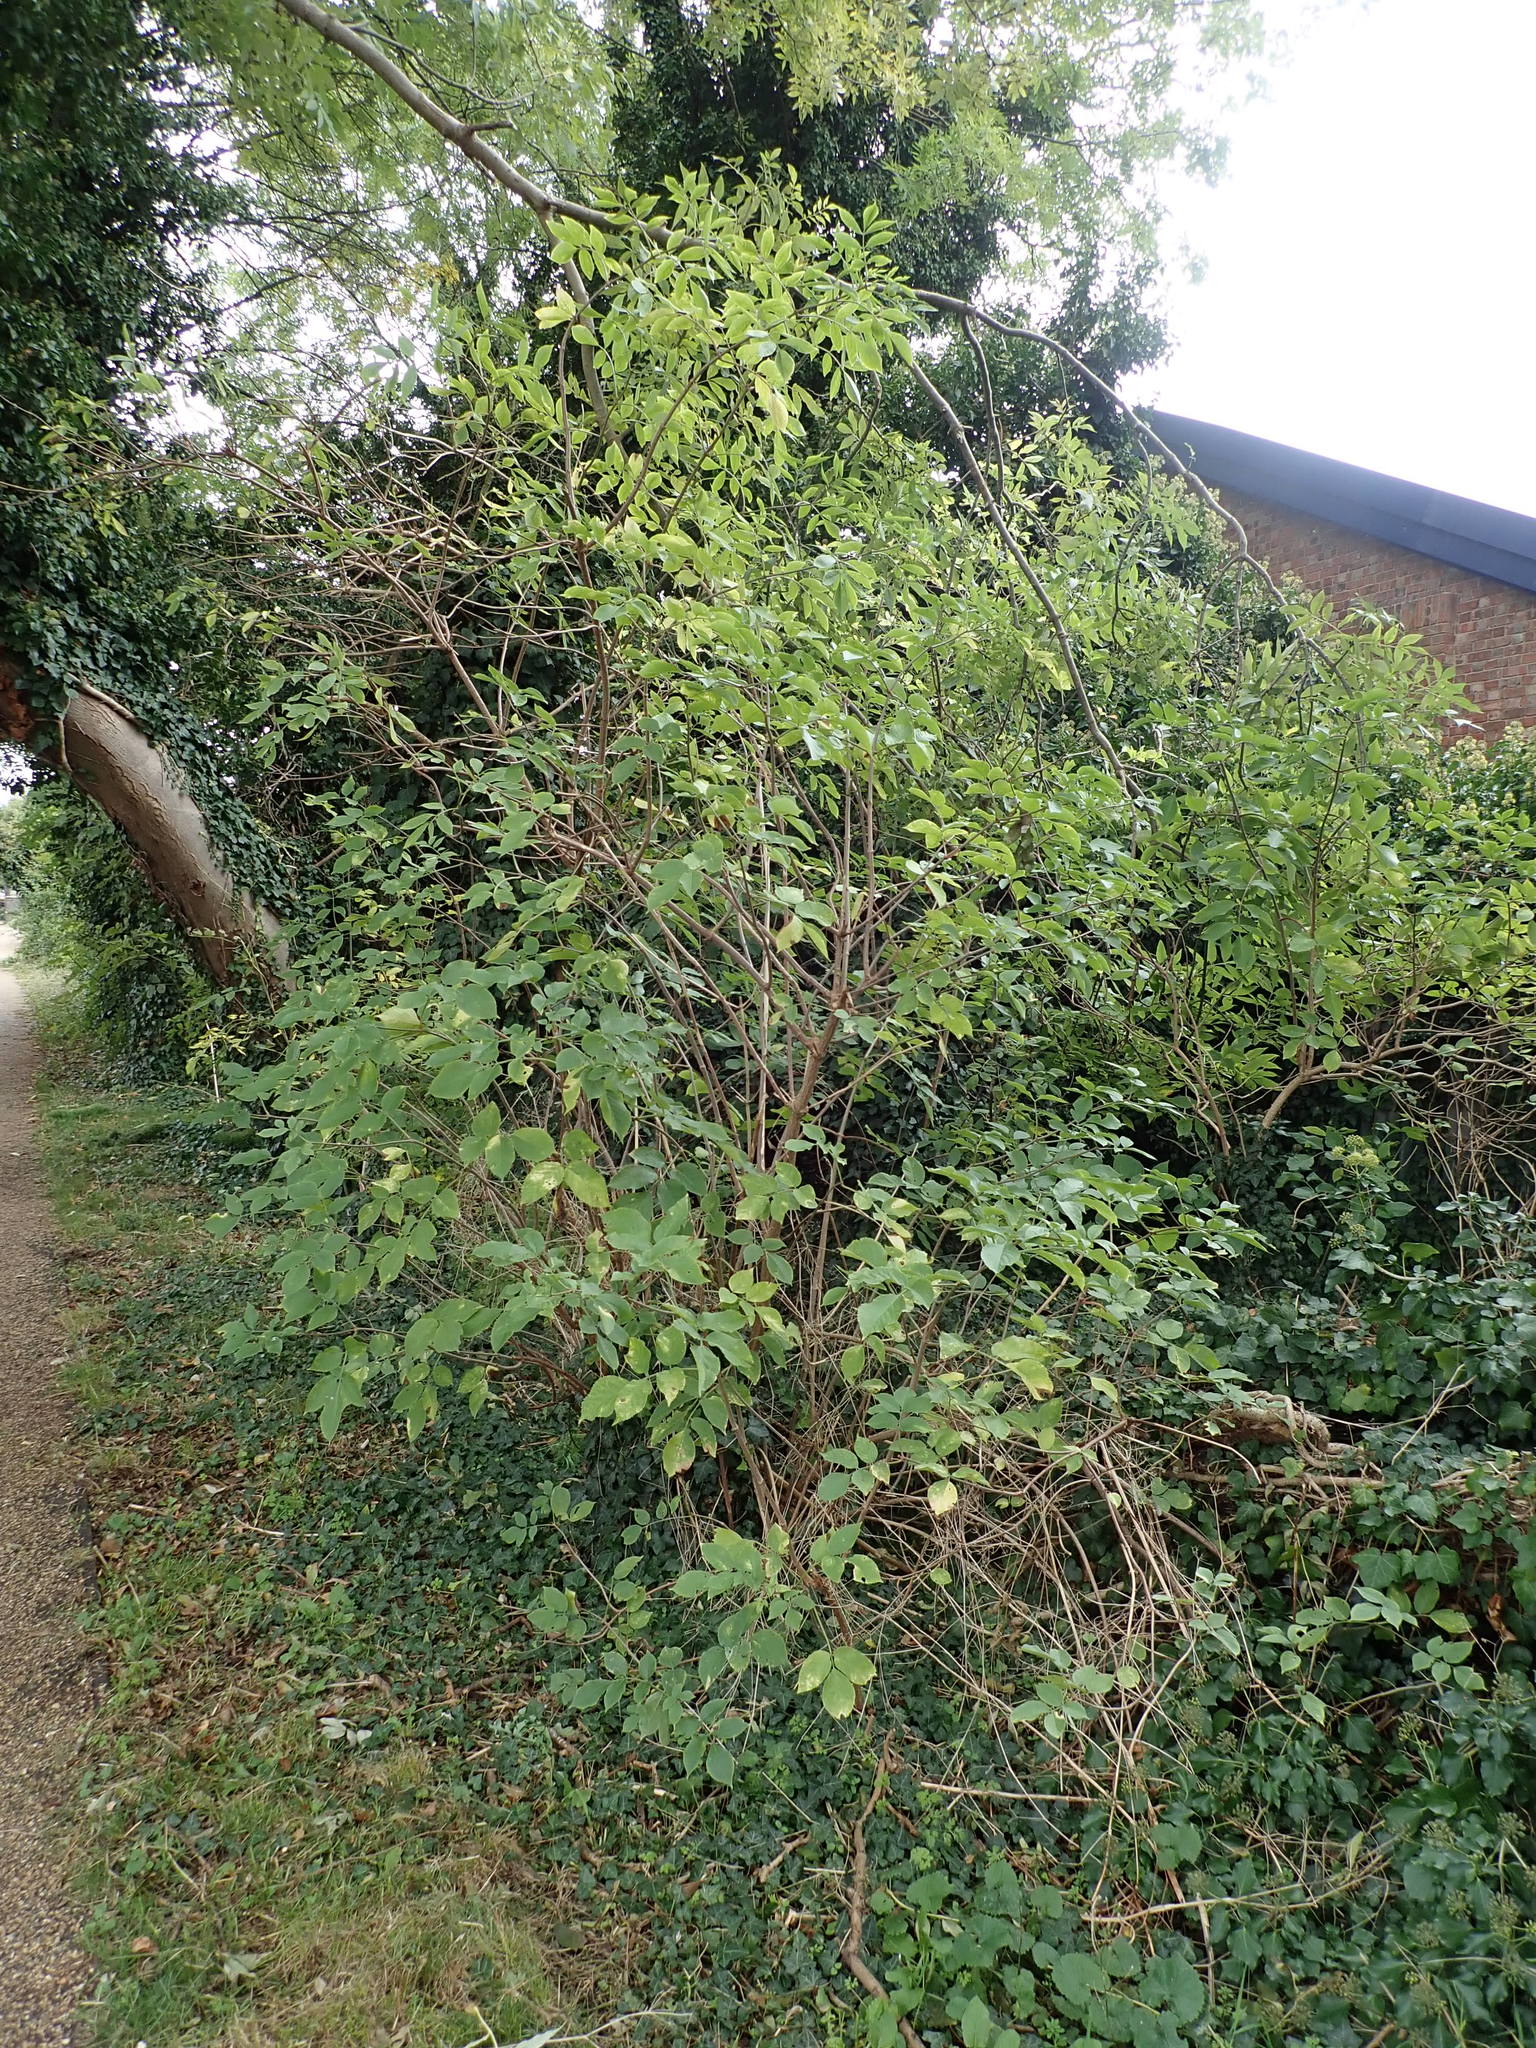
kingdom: Plantae
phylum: Tracheophyta
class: Magnoliopsida
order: Dipsacales
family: Viburnaceae
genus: Sambucus
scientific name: Sambucus nigra
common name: Elder
